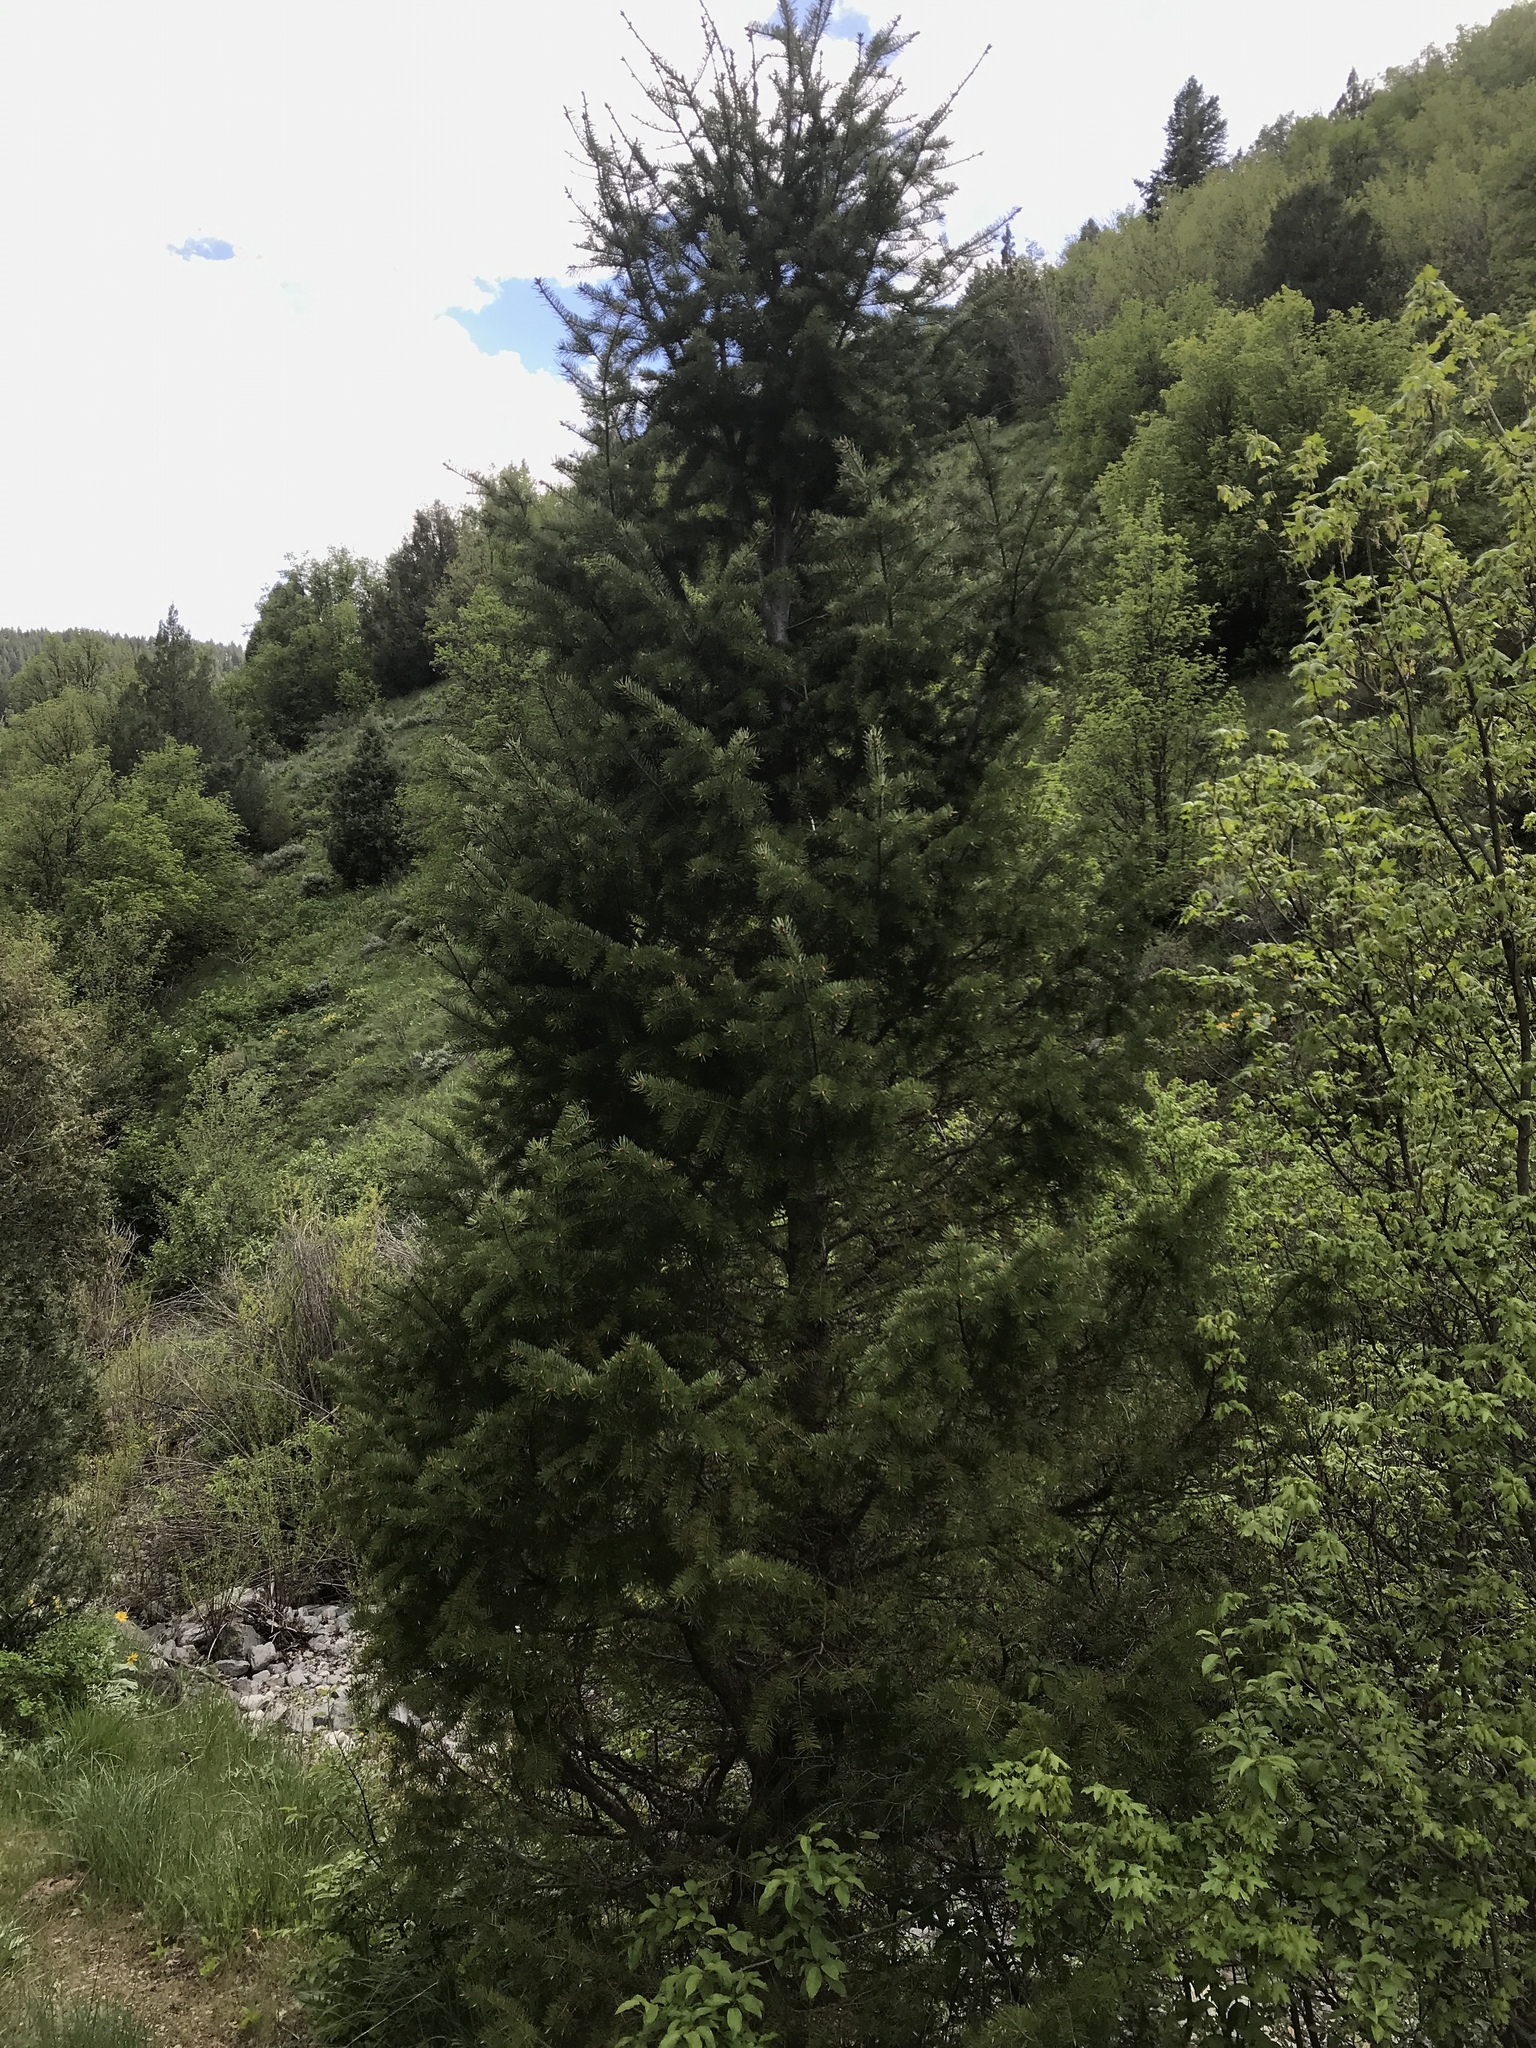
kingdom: Plantae
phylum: Tracheophyta
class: Pinopsida
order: Pinales
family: Pinaceae
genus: Pseudotsuga
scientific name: Pseudotsuga menziesii
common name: Douglas fir
